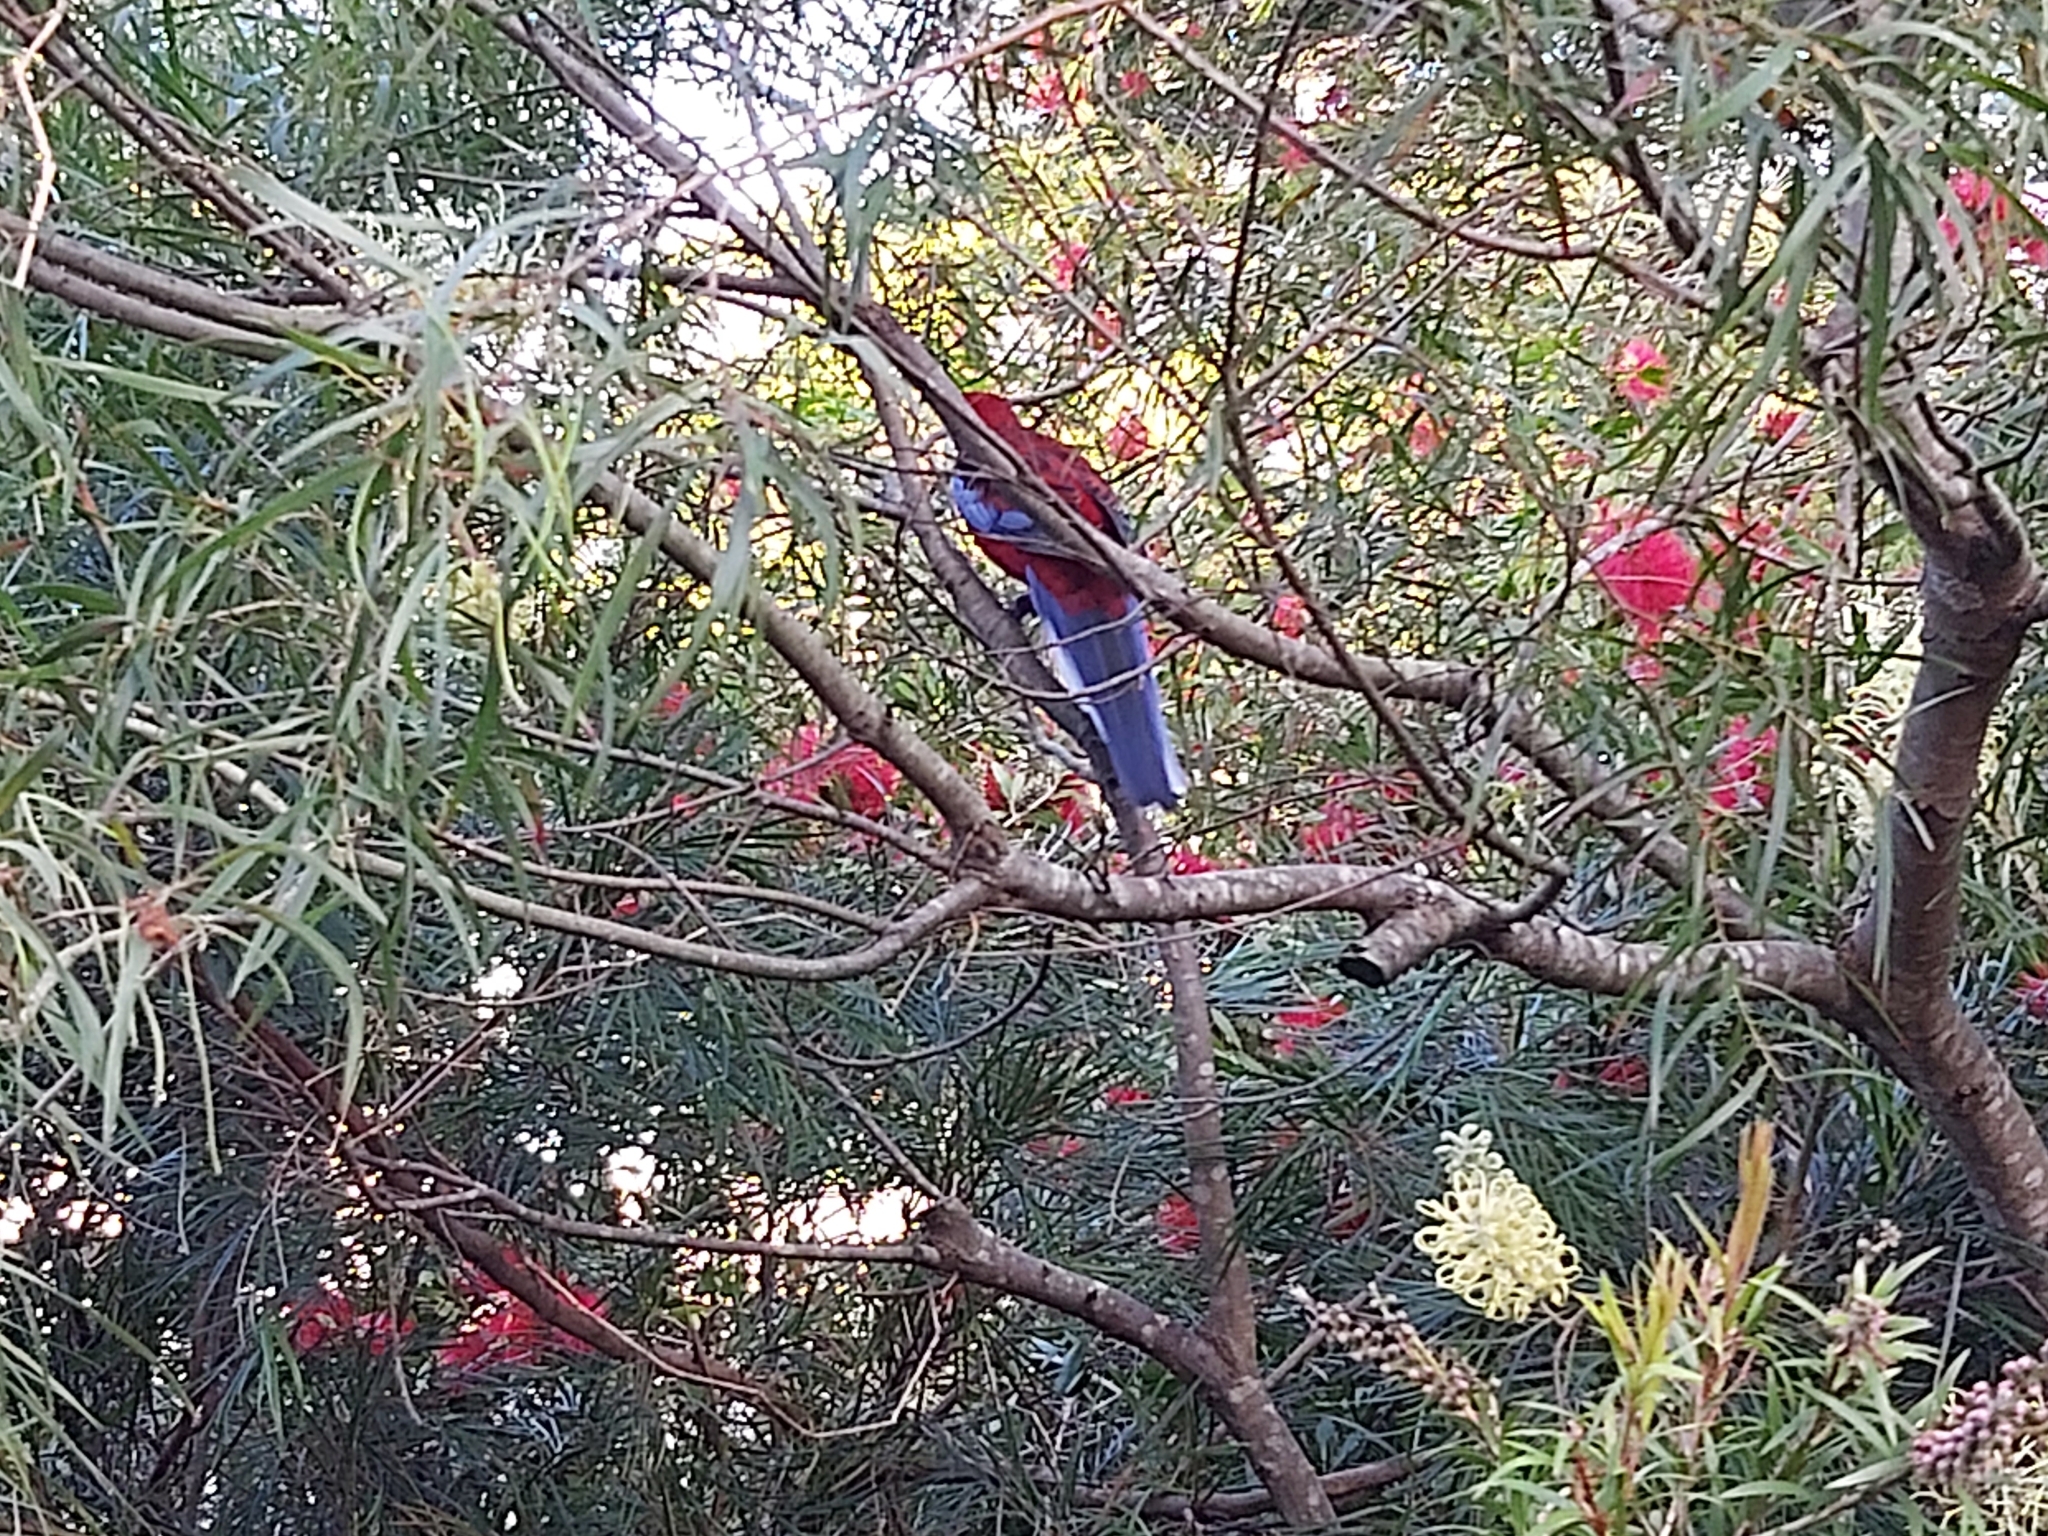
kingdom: Animalia
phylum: Chordata
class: Aves
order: Psittaciformes
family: Psittacidae
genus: Platycercus
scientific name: Platycercus elegans
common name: Crimson rosella
